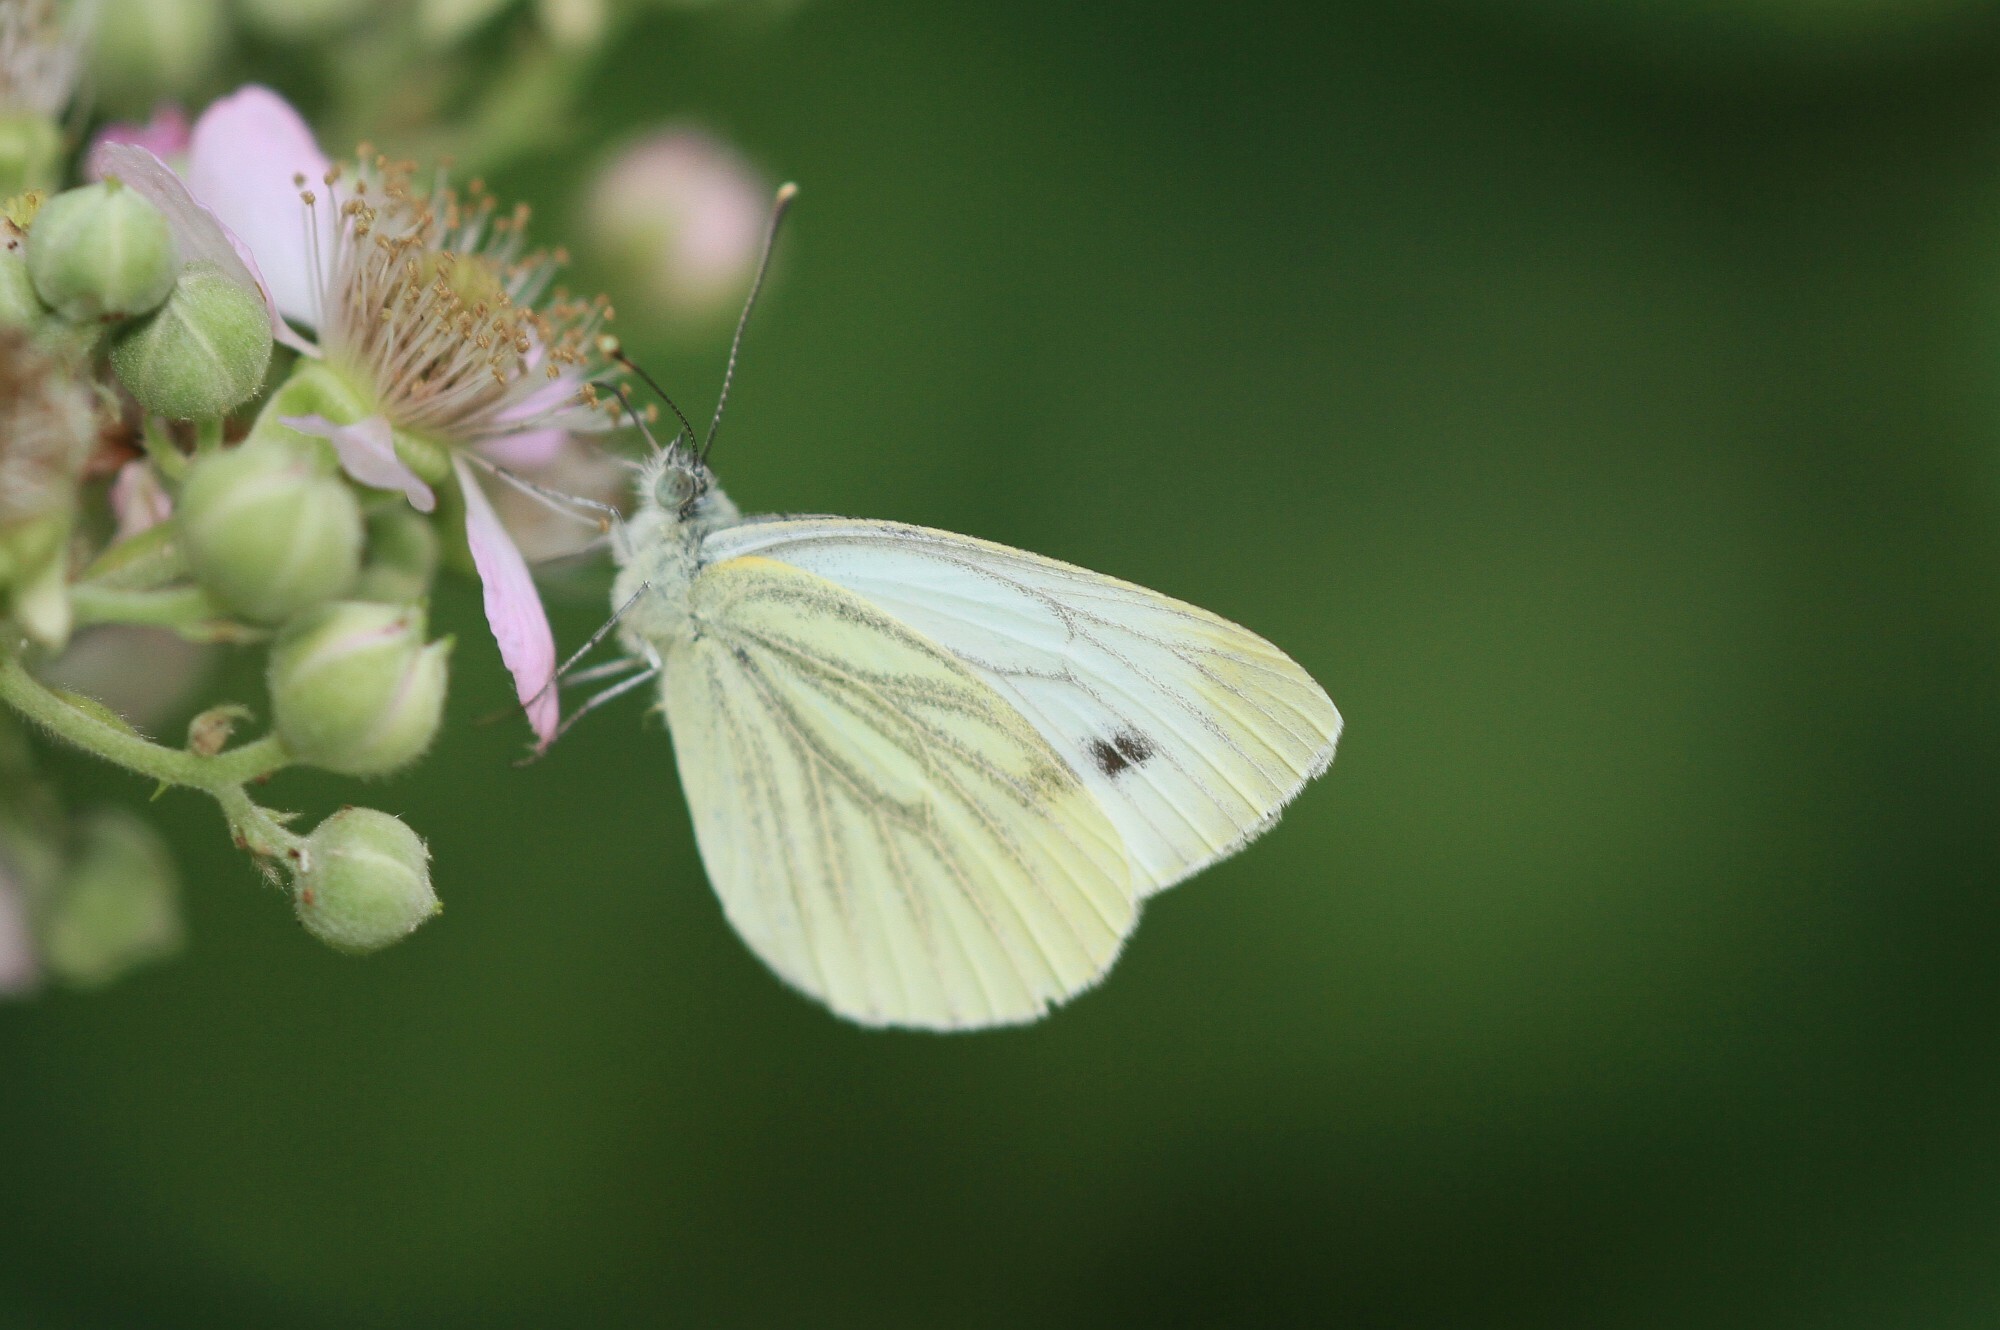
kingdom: Animalia
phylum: Arthropoda
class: Insecta
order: Lepidoptera
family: Pieridae
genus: Pieris
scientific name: Pieris napi
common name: Green-veined white
